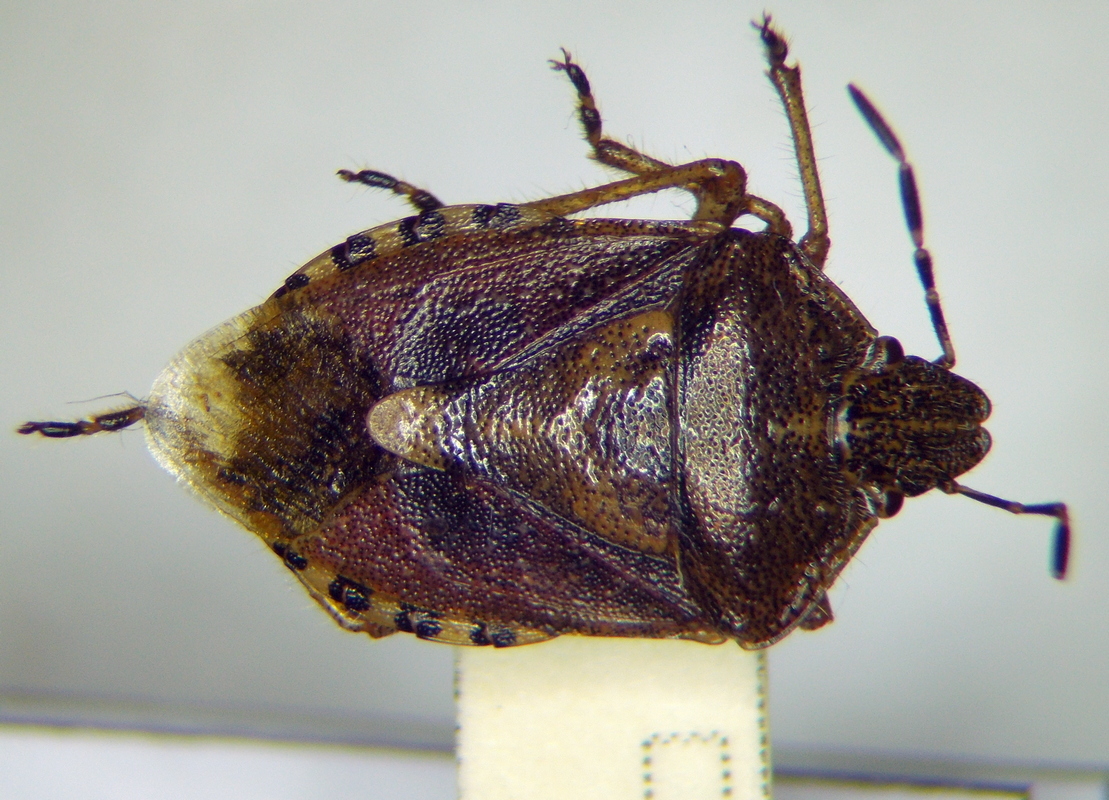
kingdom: Animalia
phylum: Arthropoda
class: Insecta
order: Hemiptera
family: Pentatomidae
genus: Dolycoris
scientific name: Dolycoris baccarum
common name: Sloe bug
